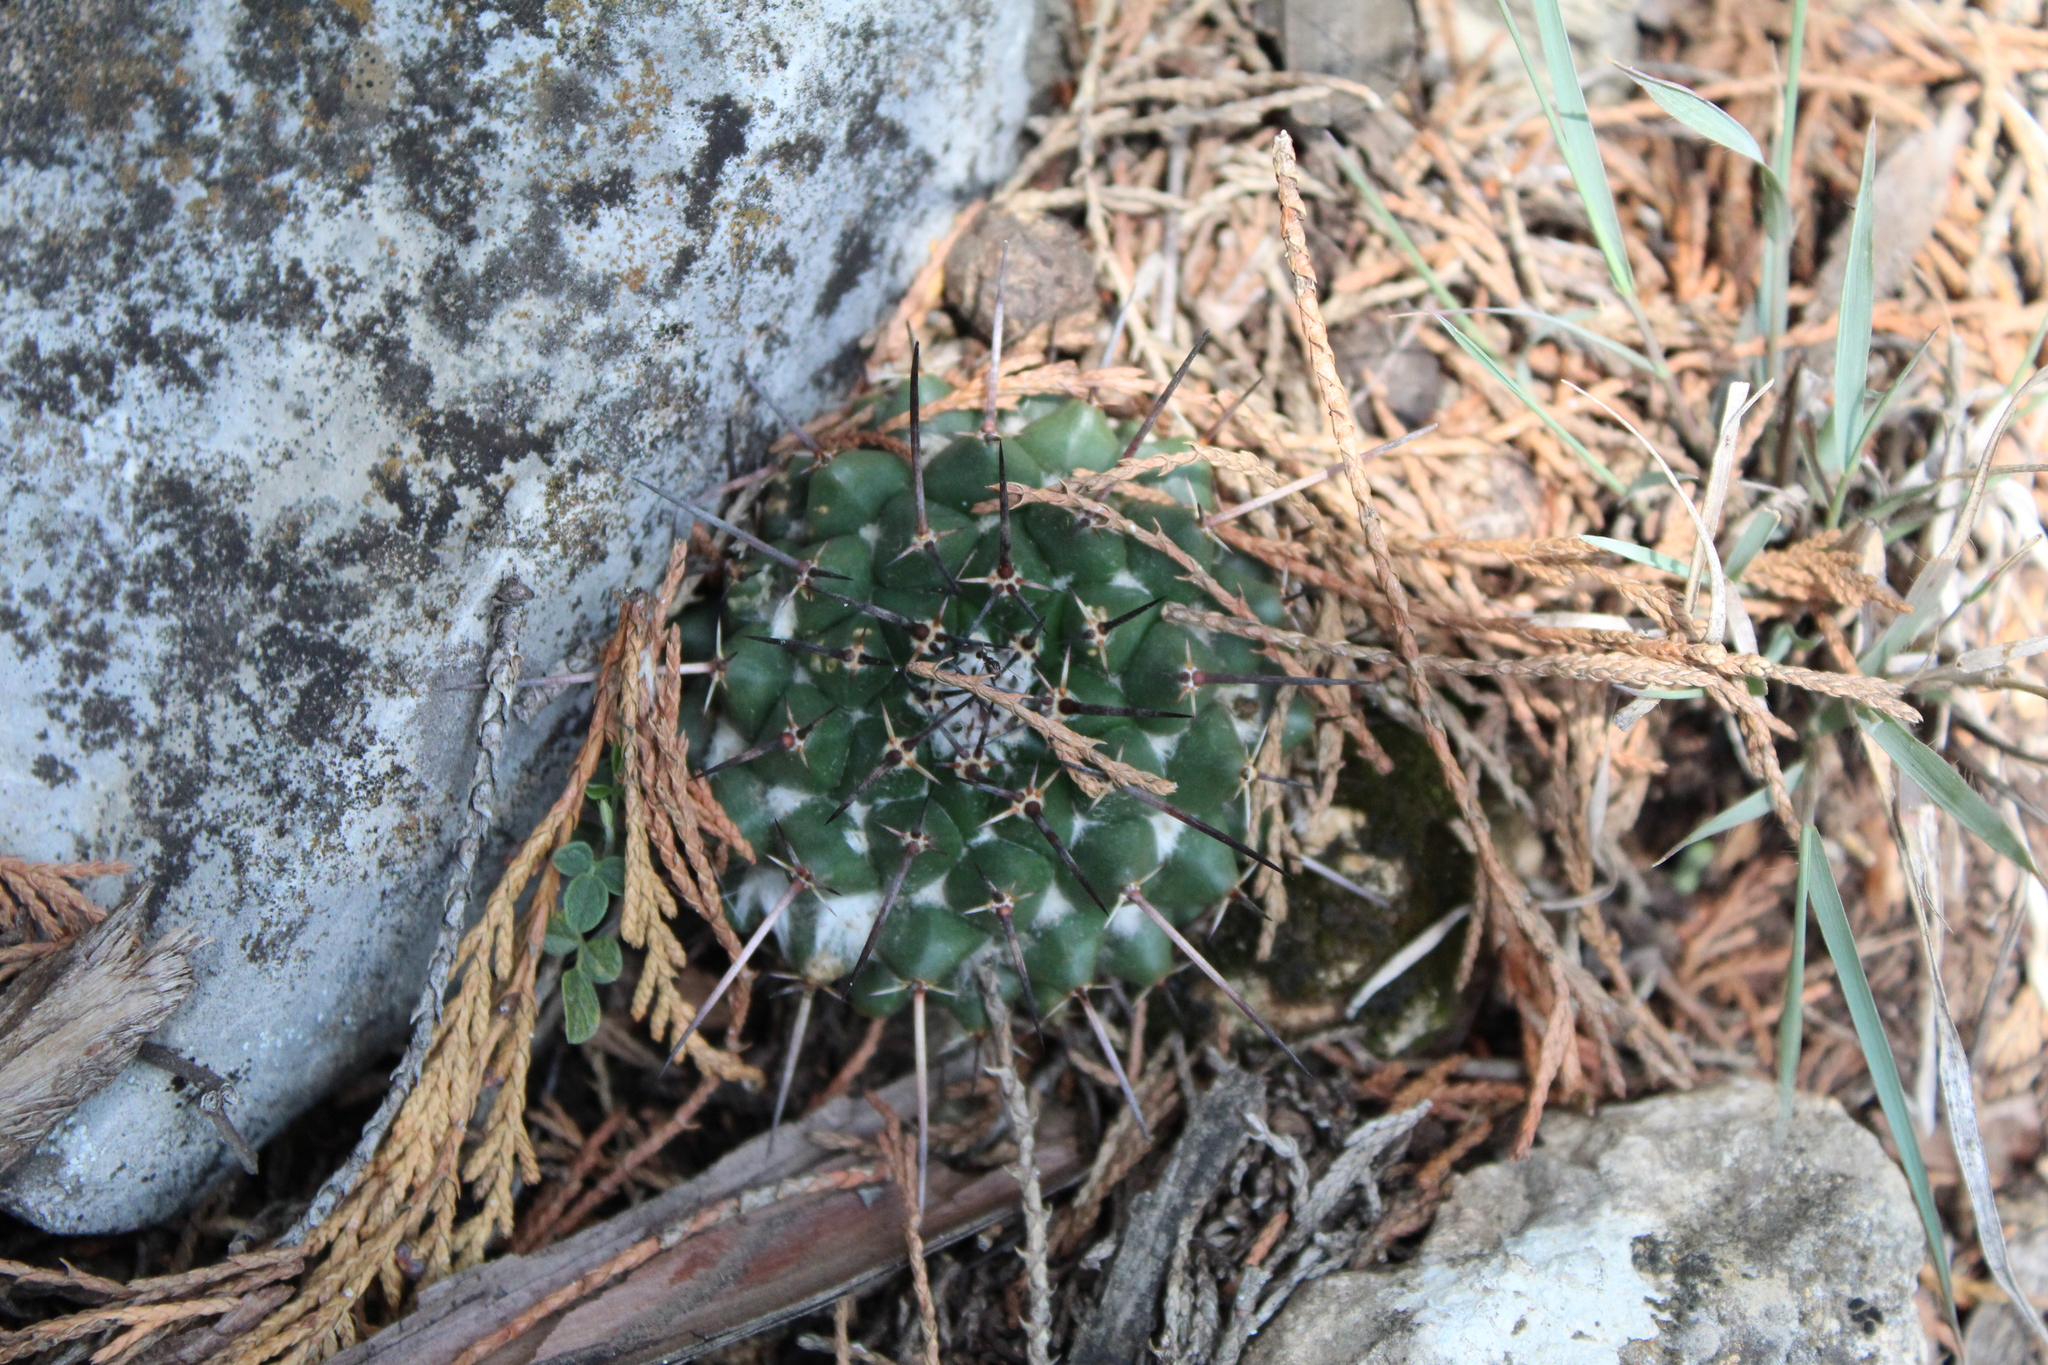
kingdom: Plantae
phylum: Tracheophyta
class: Magnoliopsida
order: Caryophyllales
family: Cactaceae
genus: Mammillaria
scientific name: Mammillaria winterae
